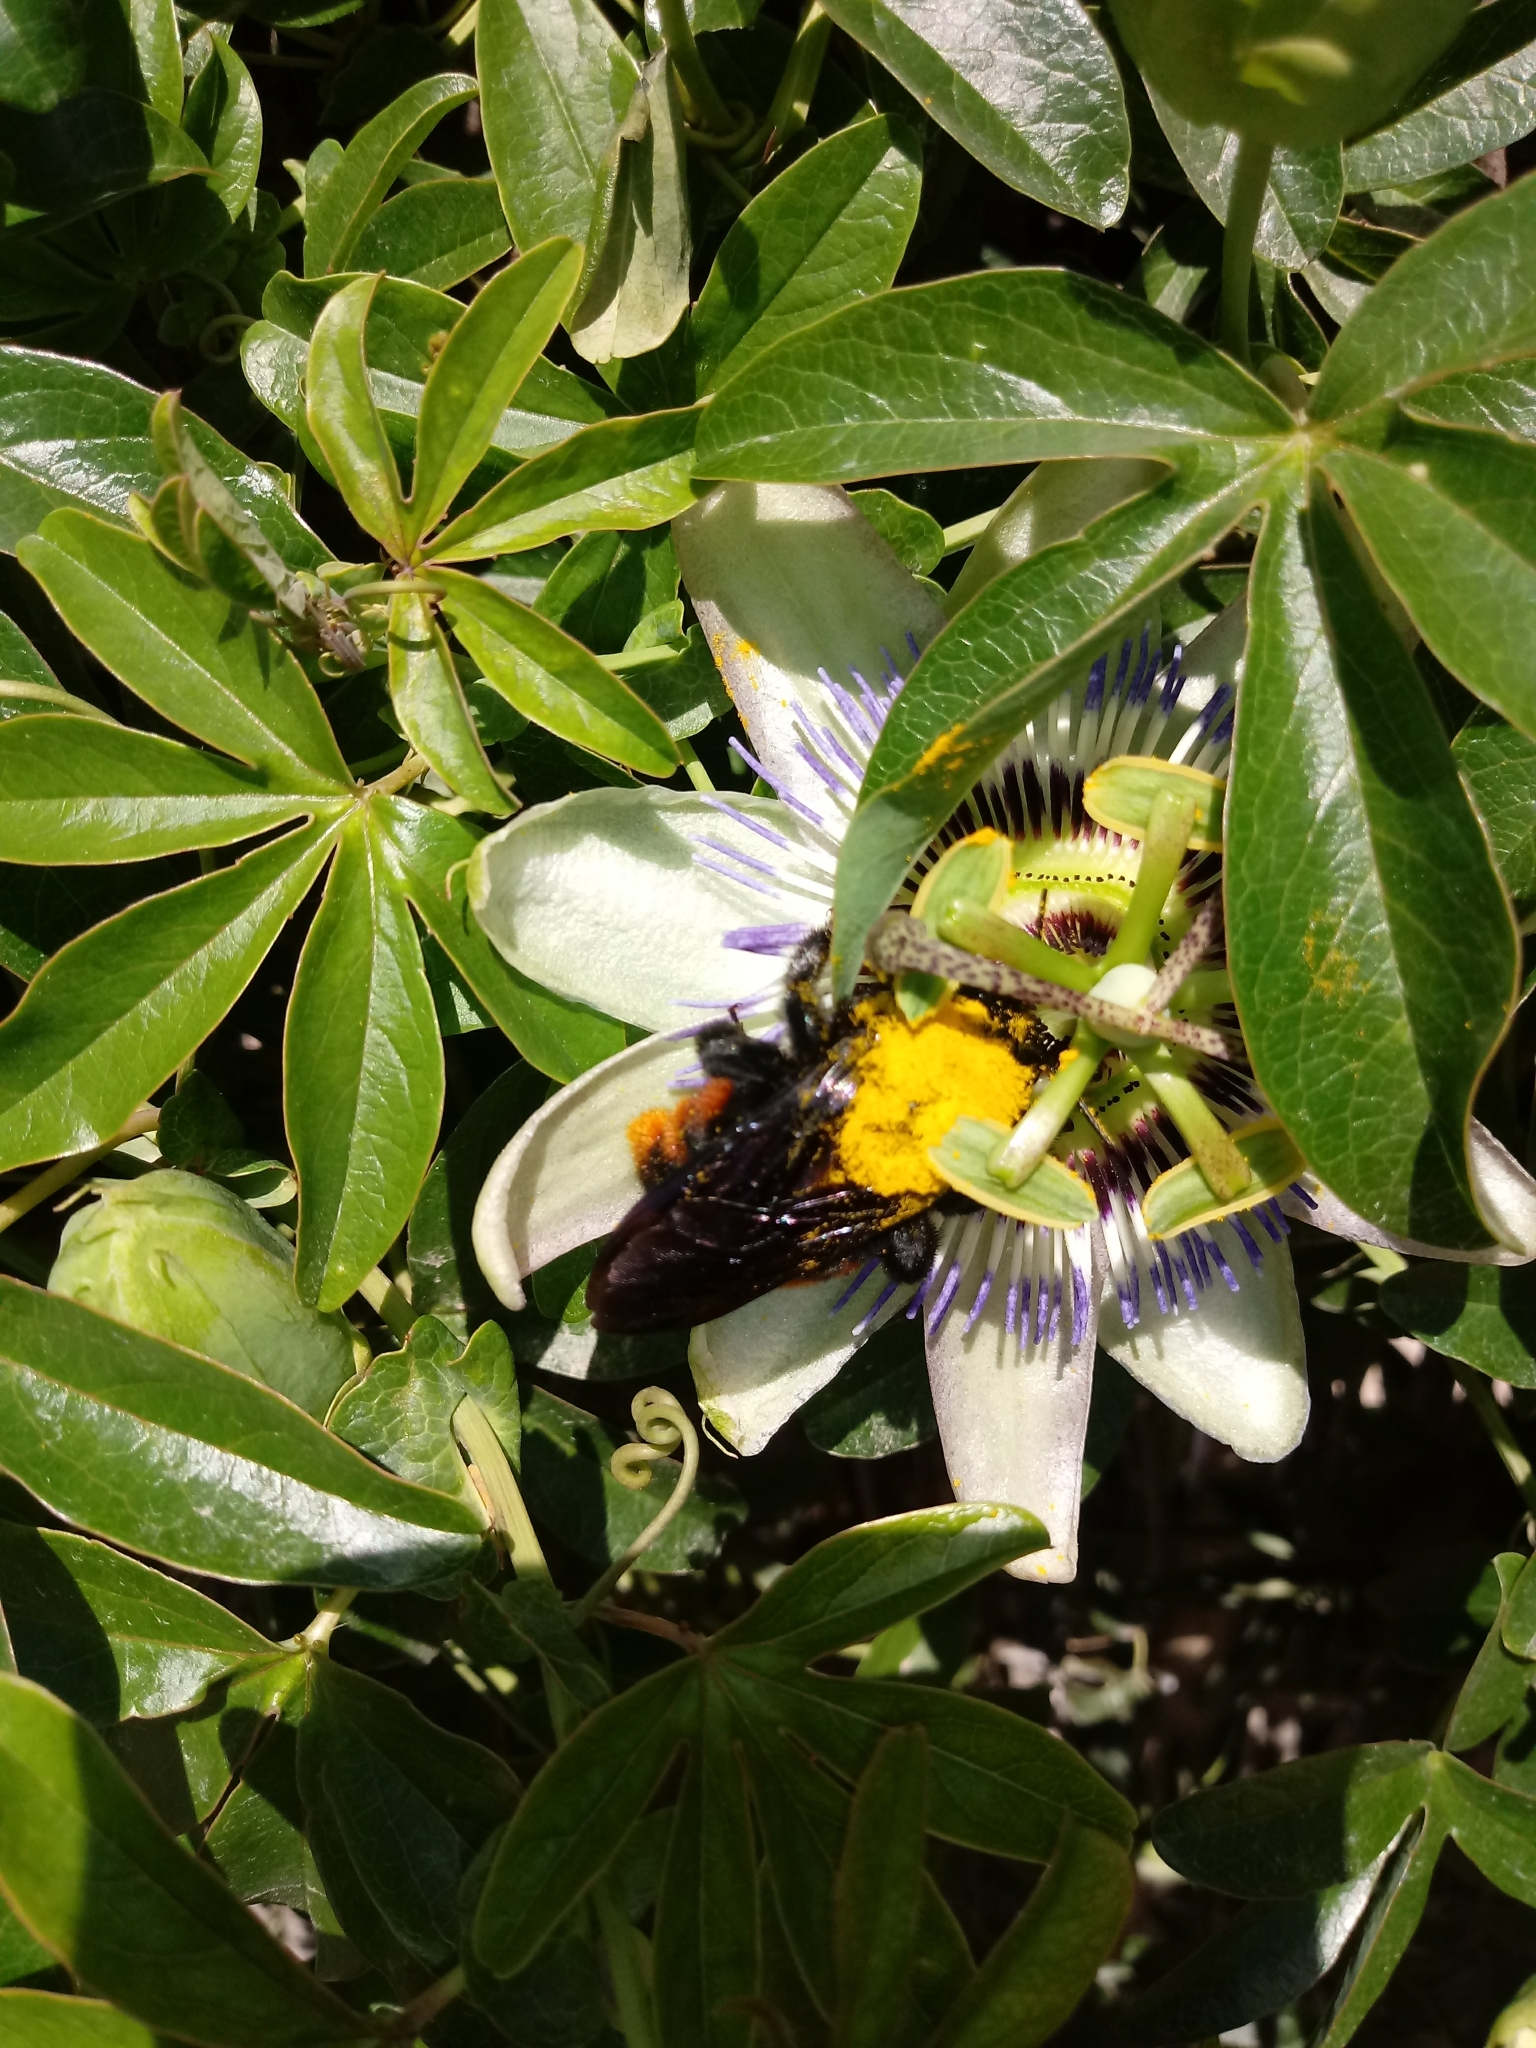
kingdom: Animalia
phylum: Arthropoda
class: Insecta
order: Hymenoptera
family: Apidae
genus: Xylocopa
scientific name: Xylocopa augusti
